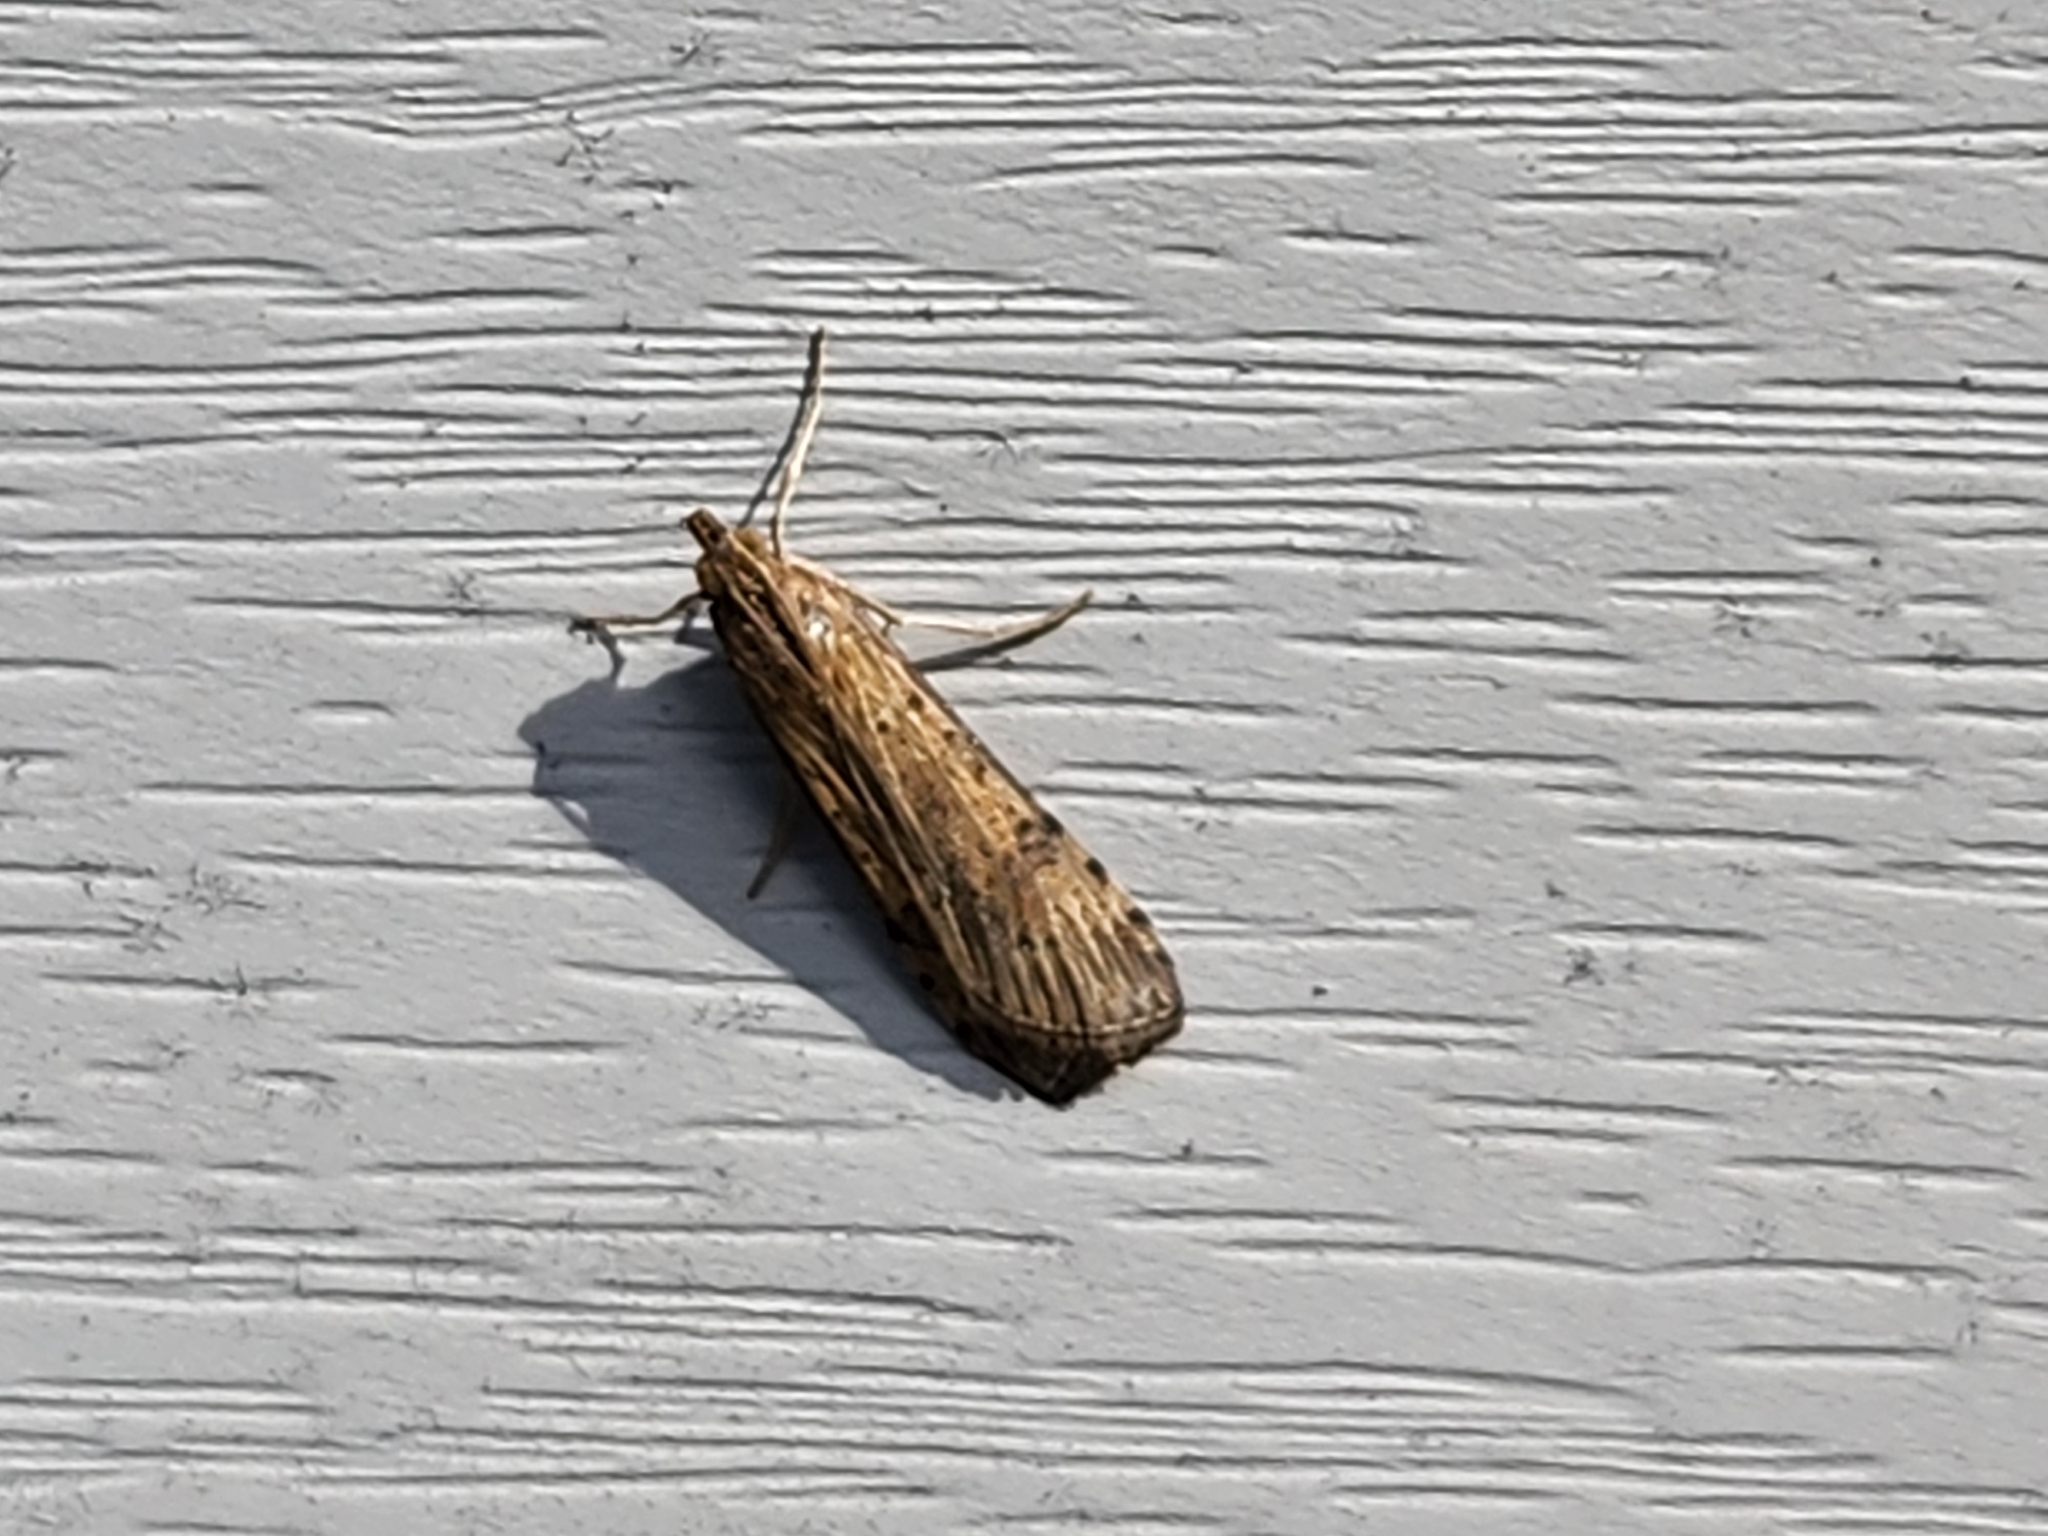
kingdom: Animalia
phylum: Arthropoda
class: Insecta
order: Lepidoptera
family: Crambidae
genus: Nomophila
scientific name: Nomophila nearctica
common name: American rush veneer
